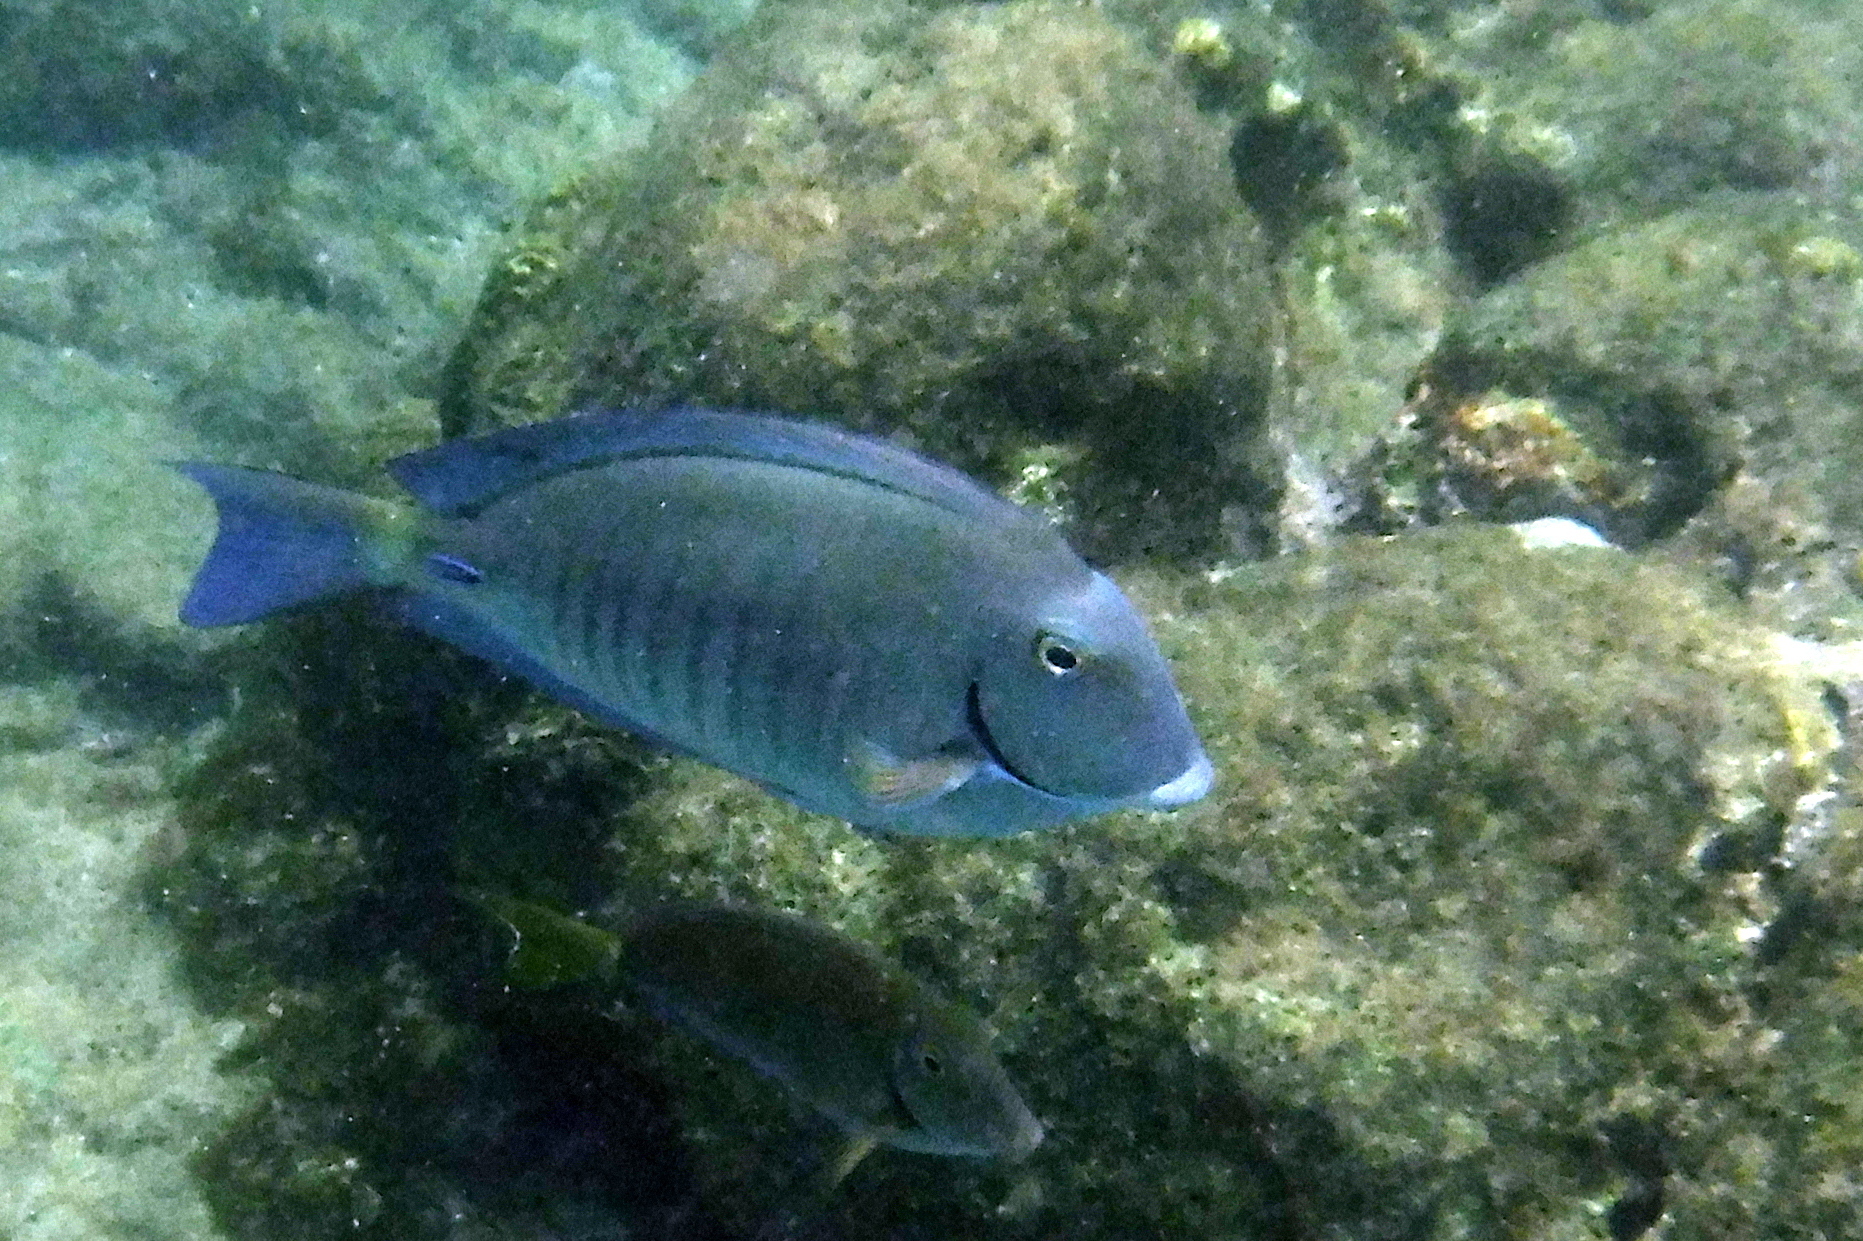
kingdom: Animalia
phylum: Chordata
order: Perciformes
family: Acanthuridae
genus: Acanthurus
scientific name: Acanthurus chirurgus
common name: Doctorfish
